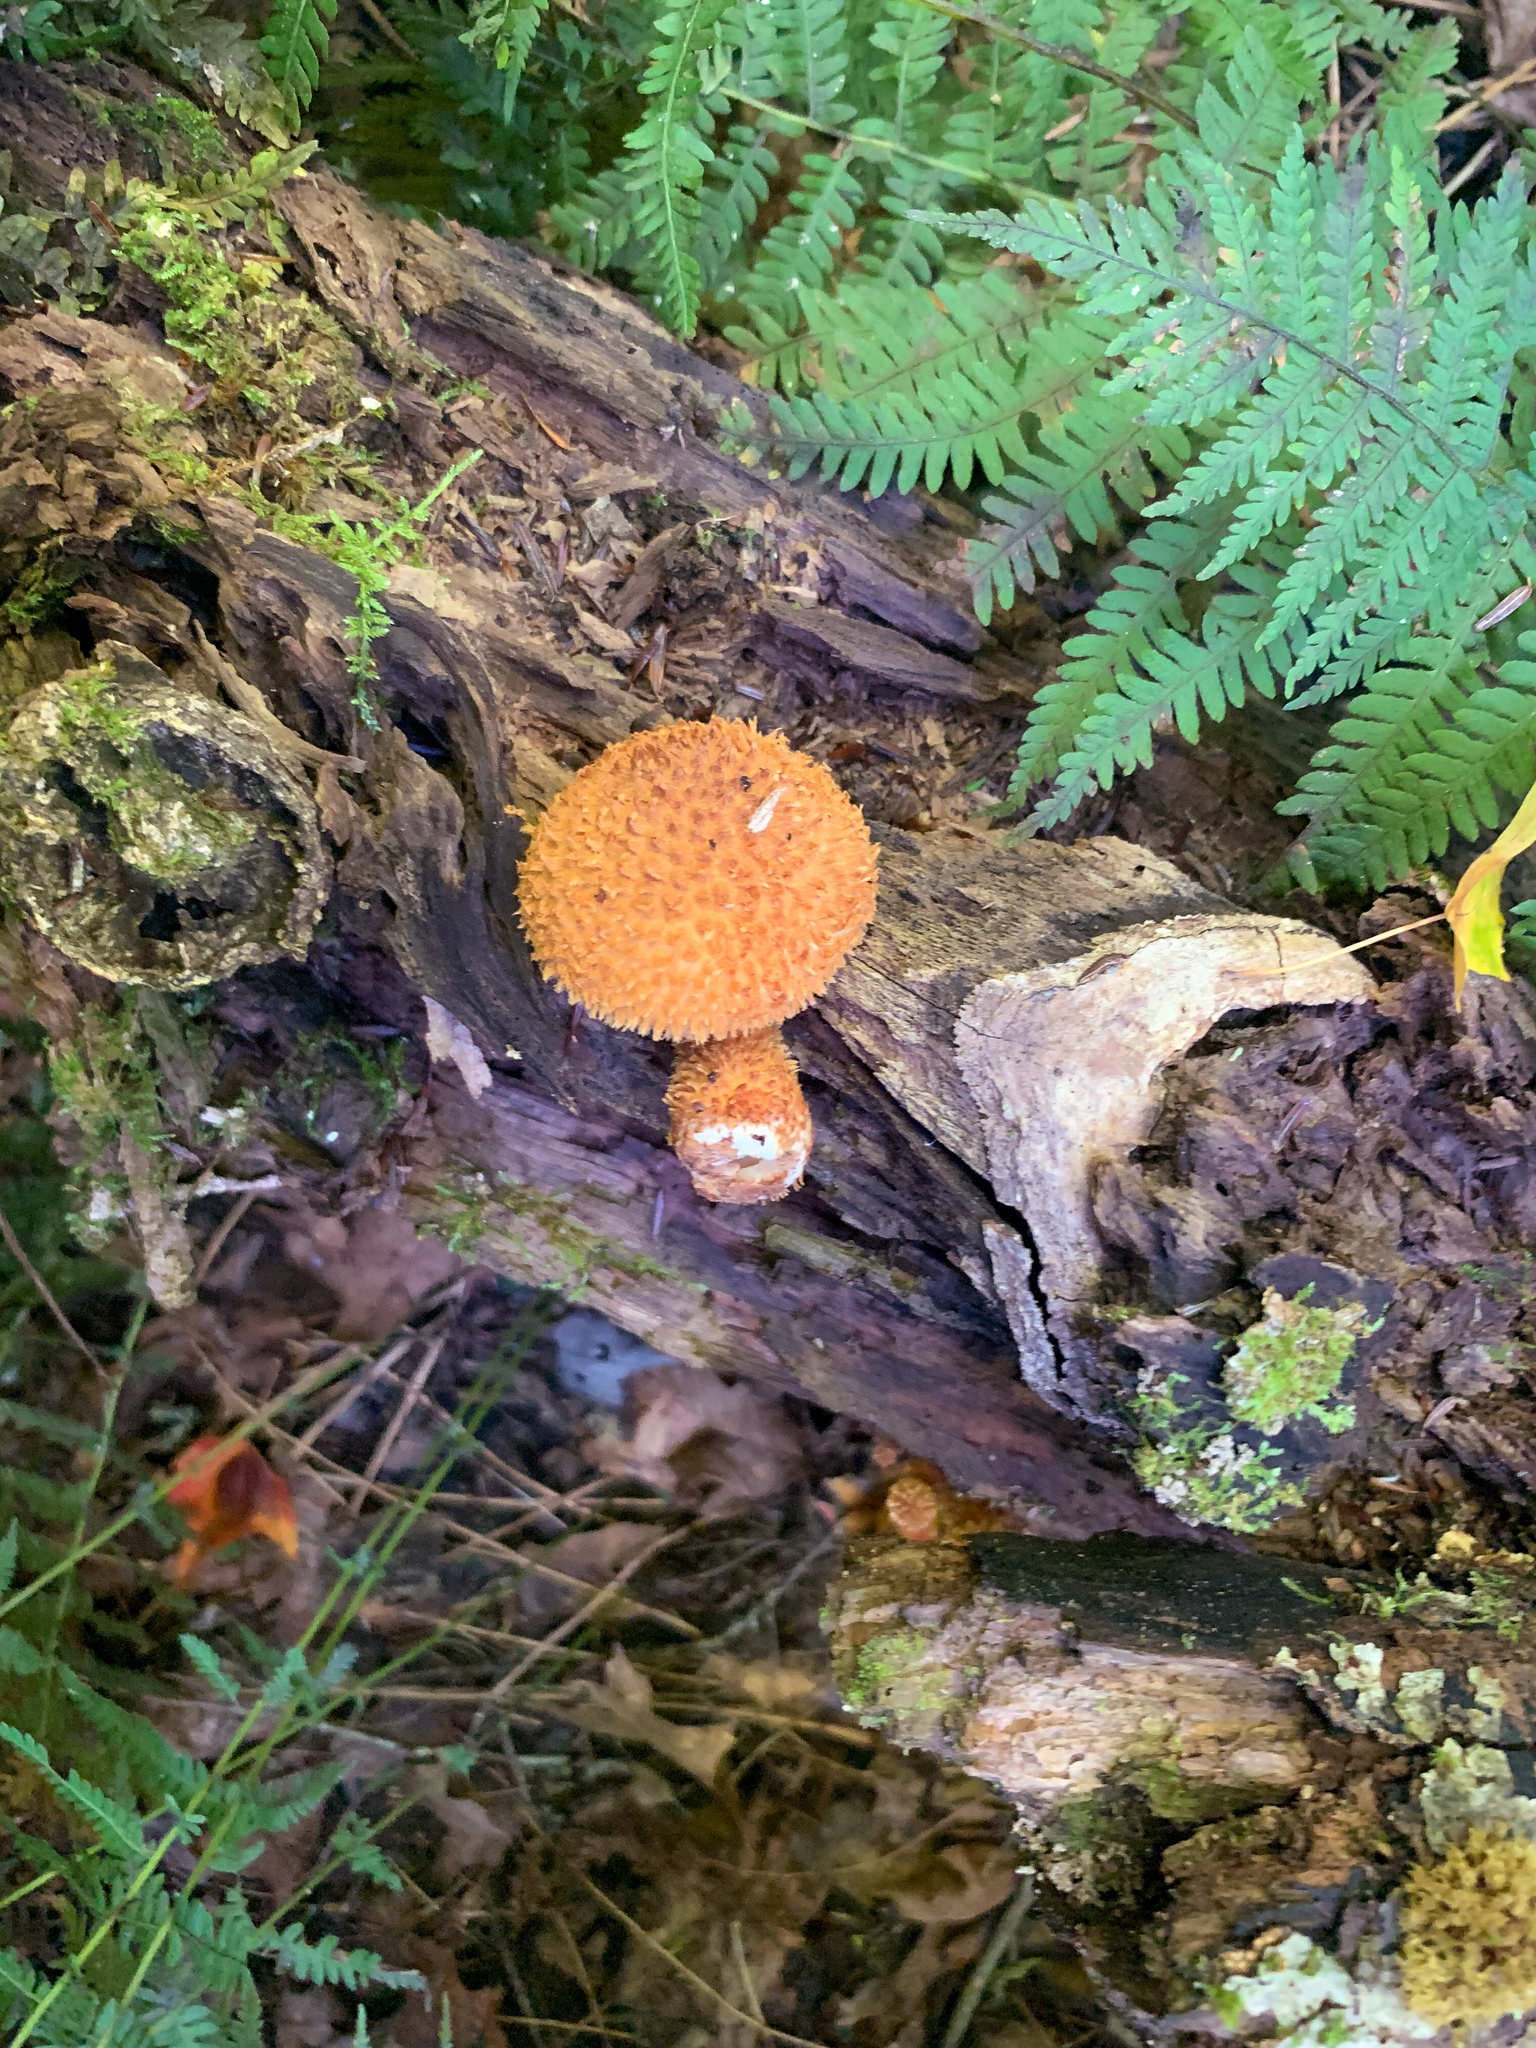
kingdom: Fungi
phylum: Basidiomycota
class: Agaricomycetes
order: Agaricales
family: Agaricaceae
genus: Leucopholiota
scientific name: Leucopholiota decorosa
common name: Decorated pholiota
